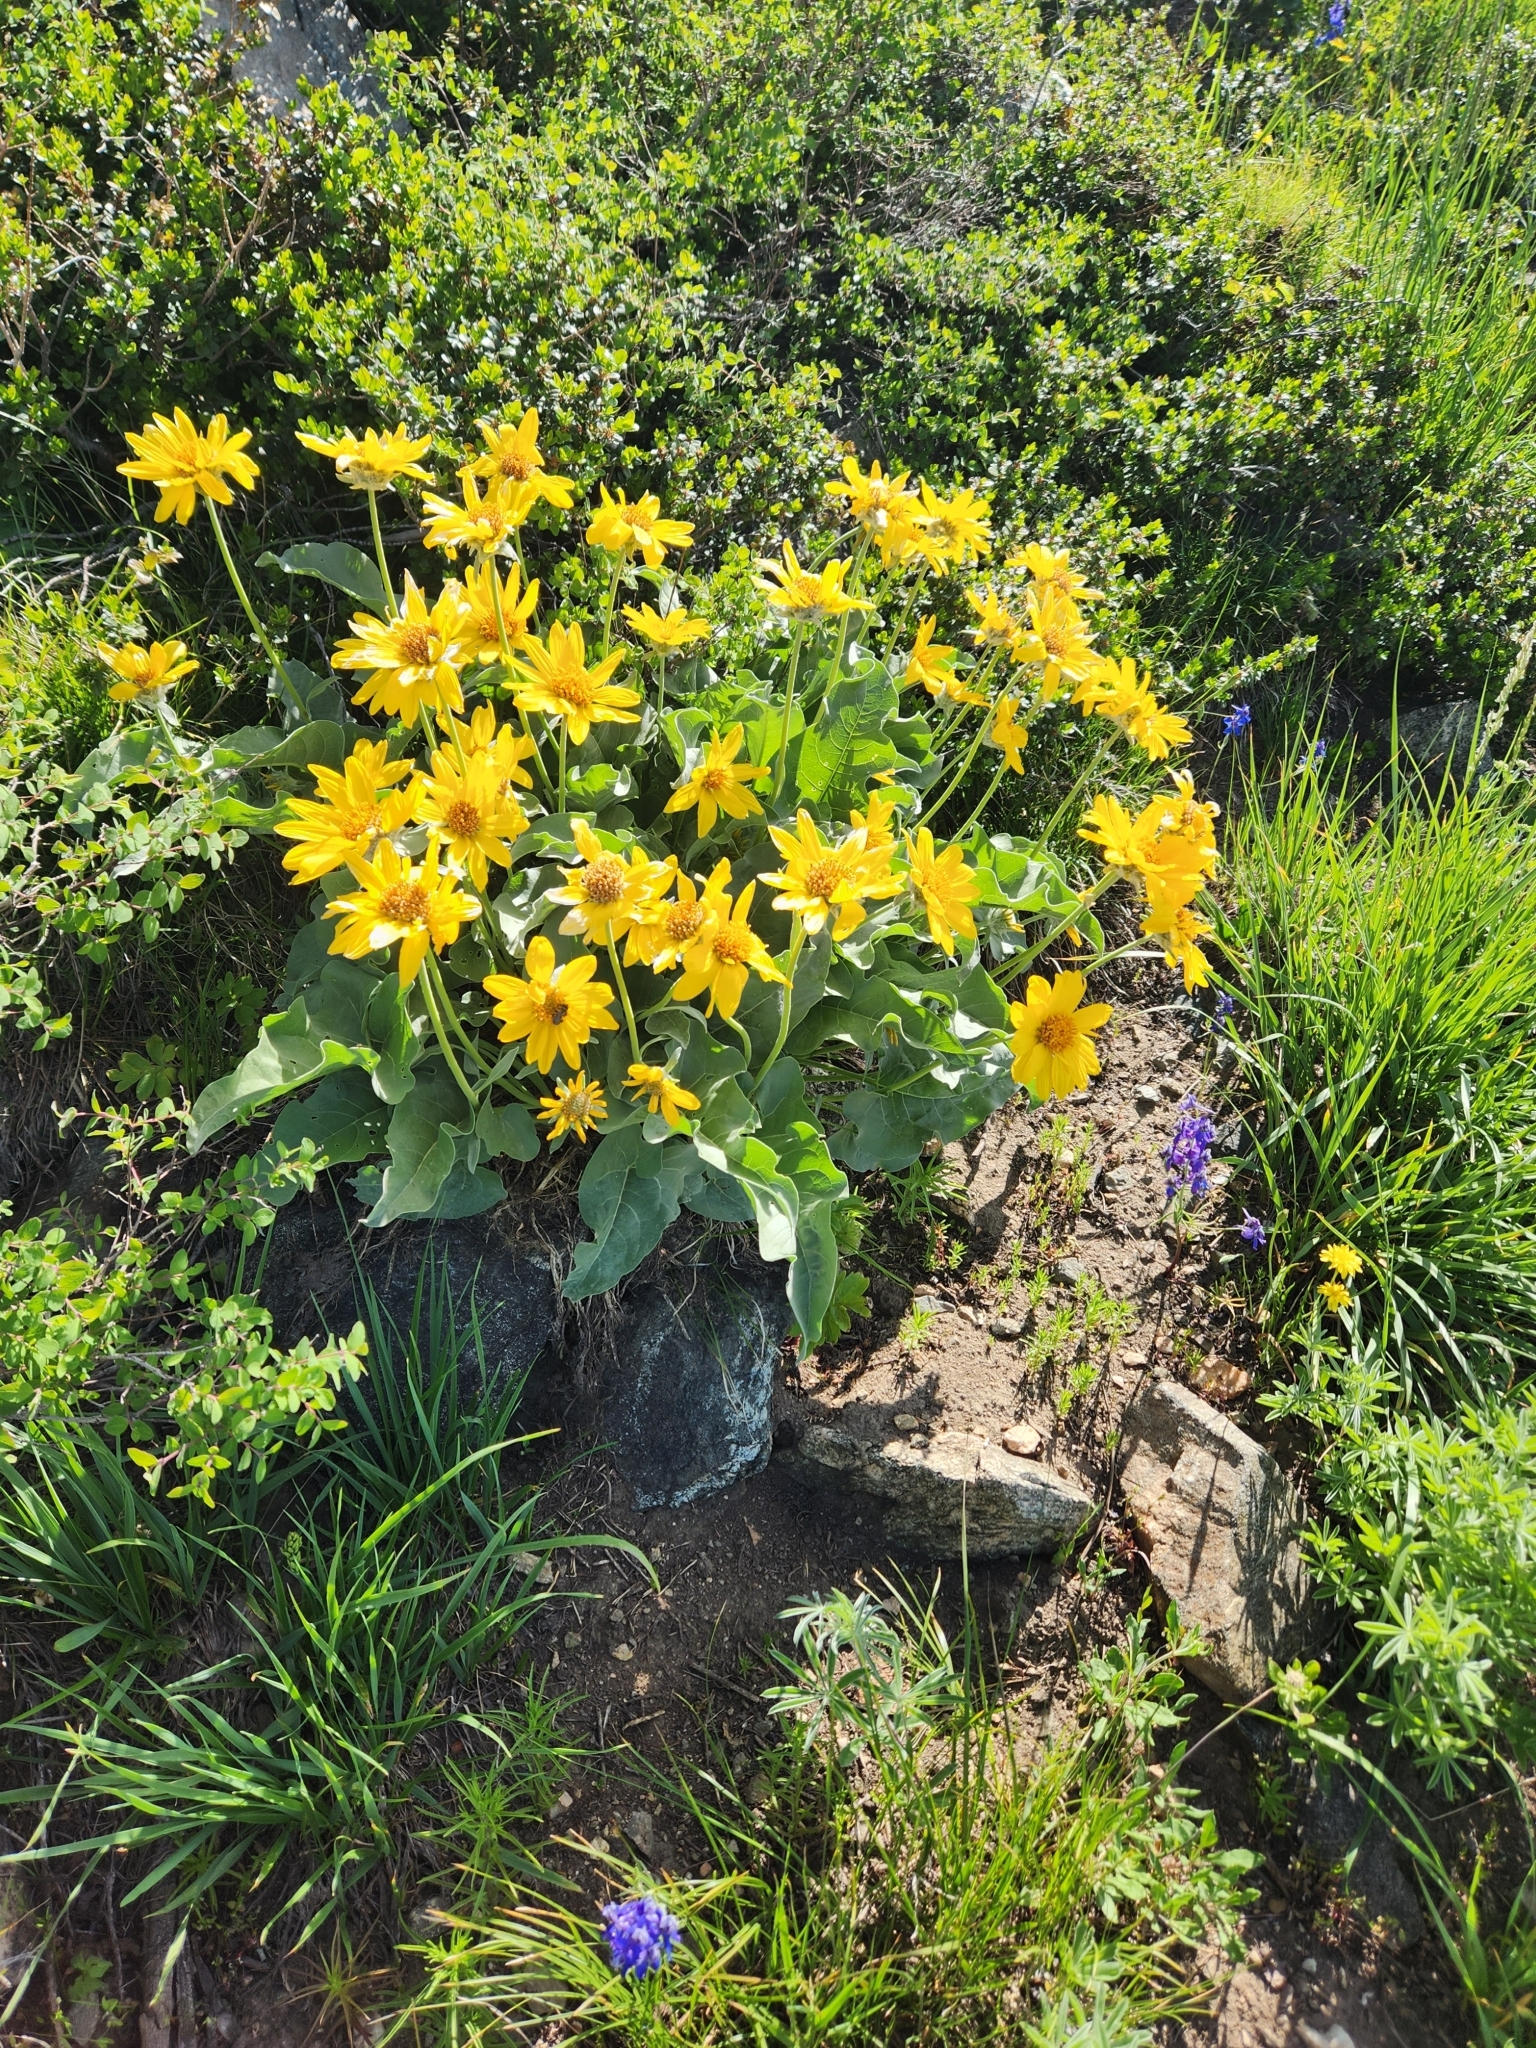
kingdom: Plantae
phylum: Tracheophyta
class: Magnoliopsida
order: Asterales
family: Asteraceae
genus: Wyethia
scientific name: Wyethia sagittata
